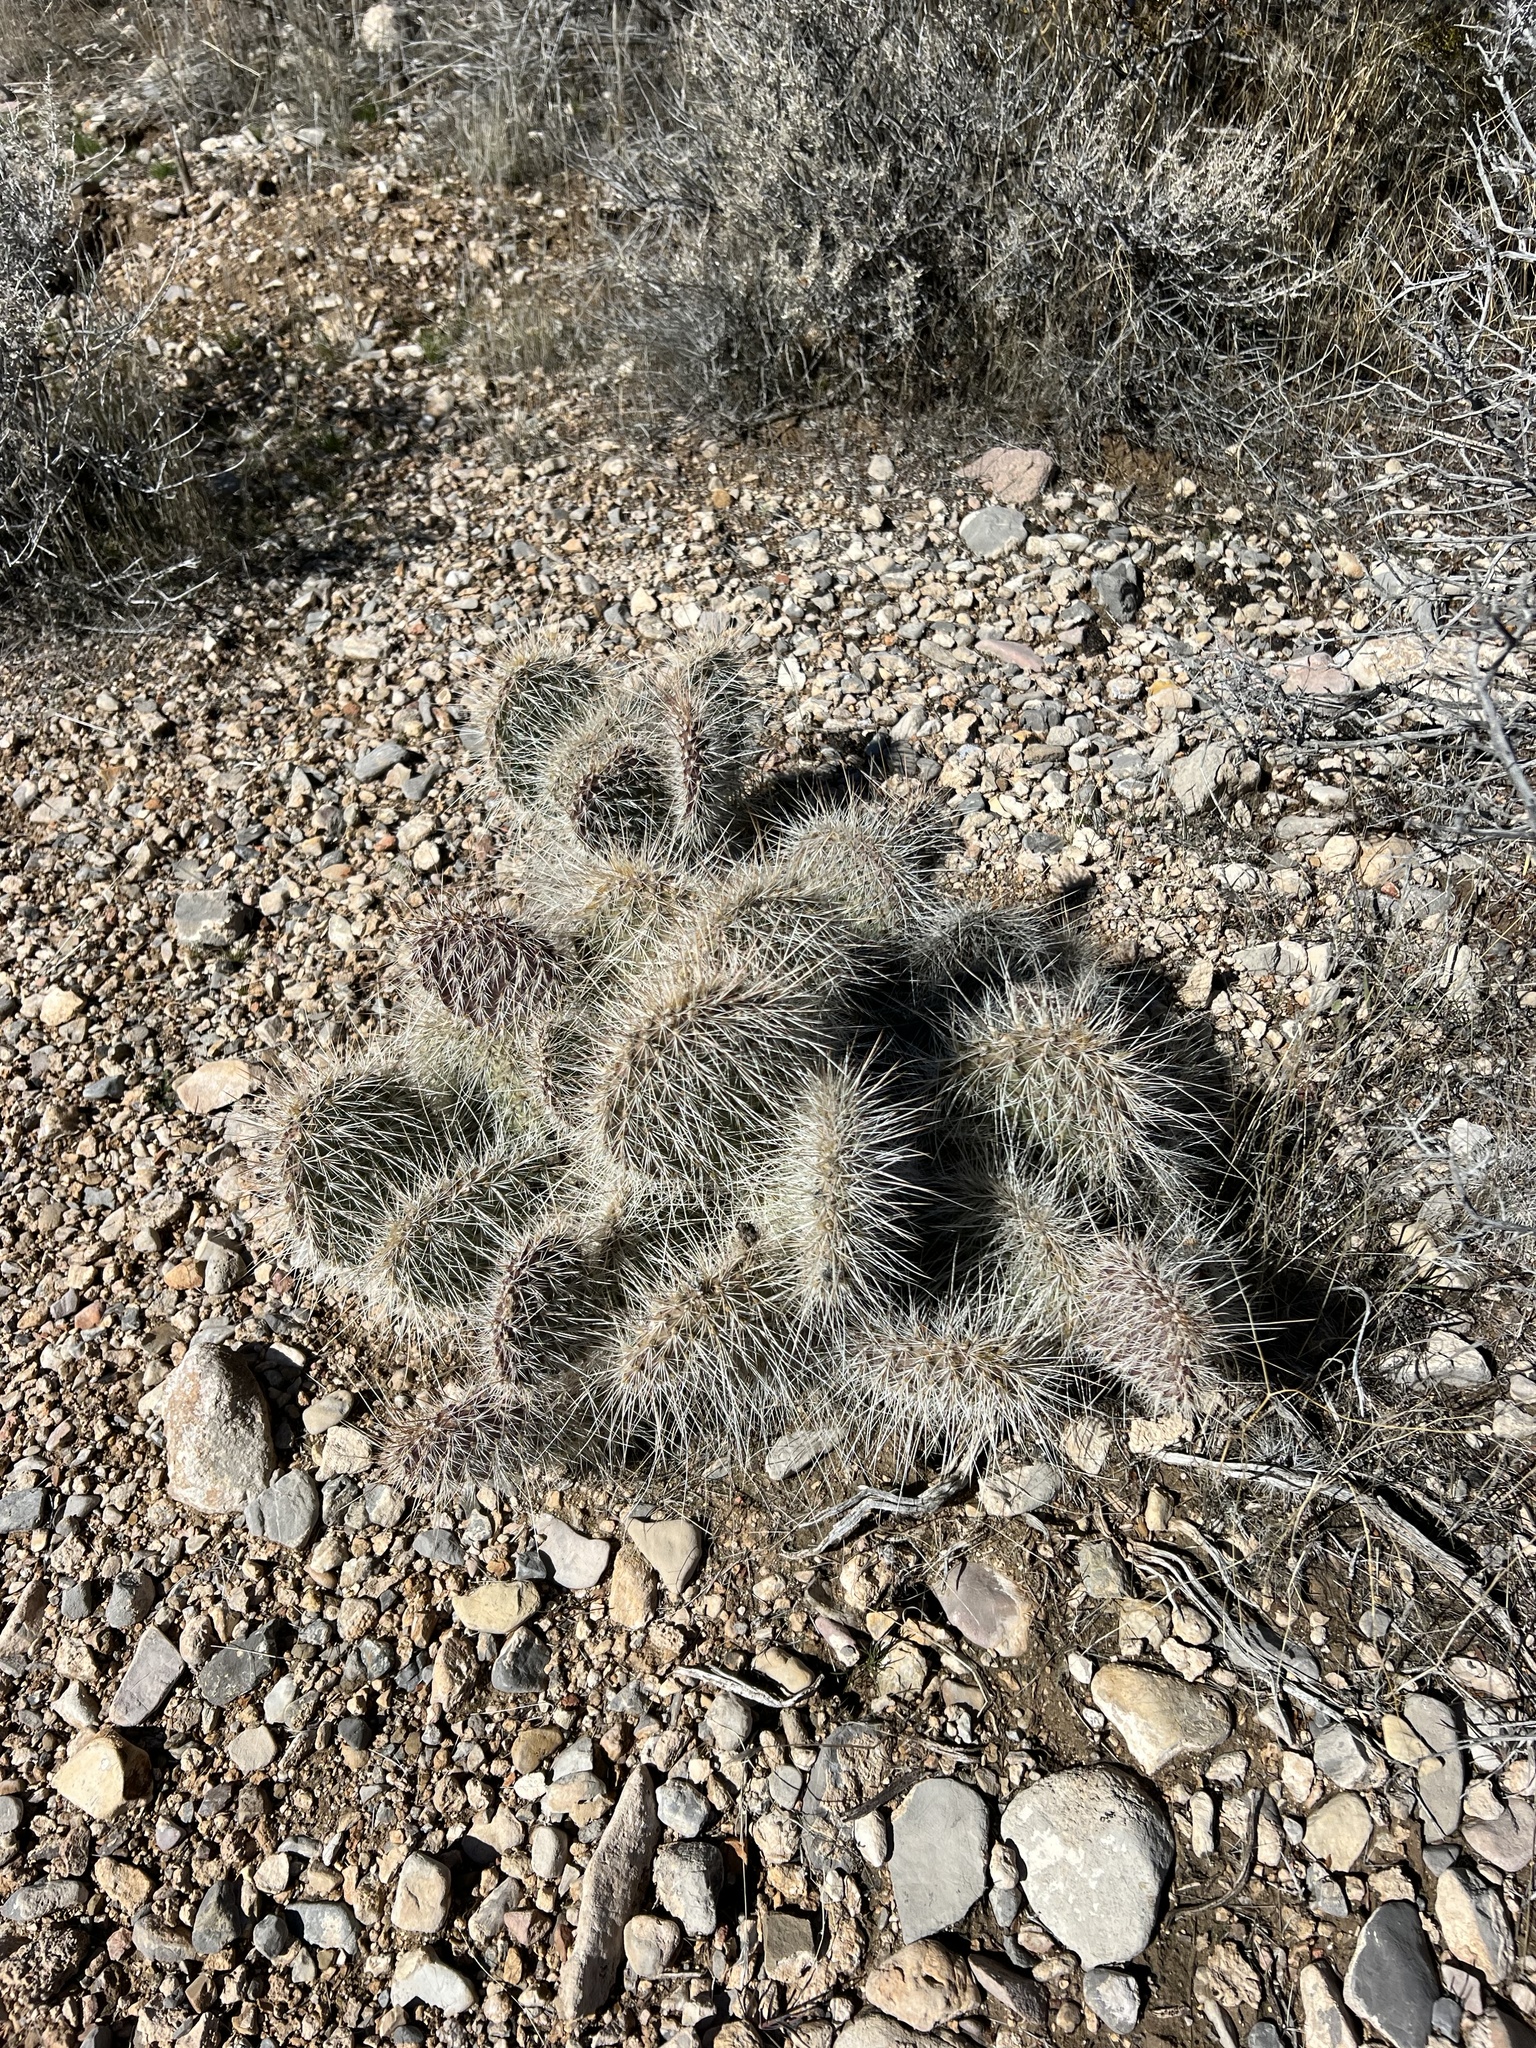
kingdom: Plantae
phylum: Tracheophyta
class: Magnoliopsida
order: Caryophyllales
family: Cactaceae
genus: Opuntia
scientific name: Opuntia polyacantha
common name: Plains prickly-pear
